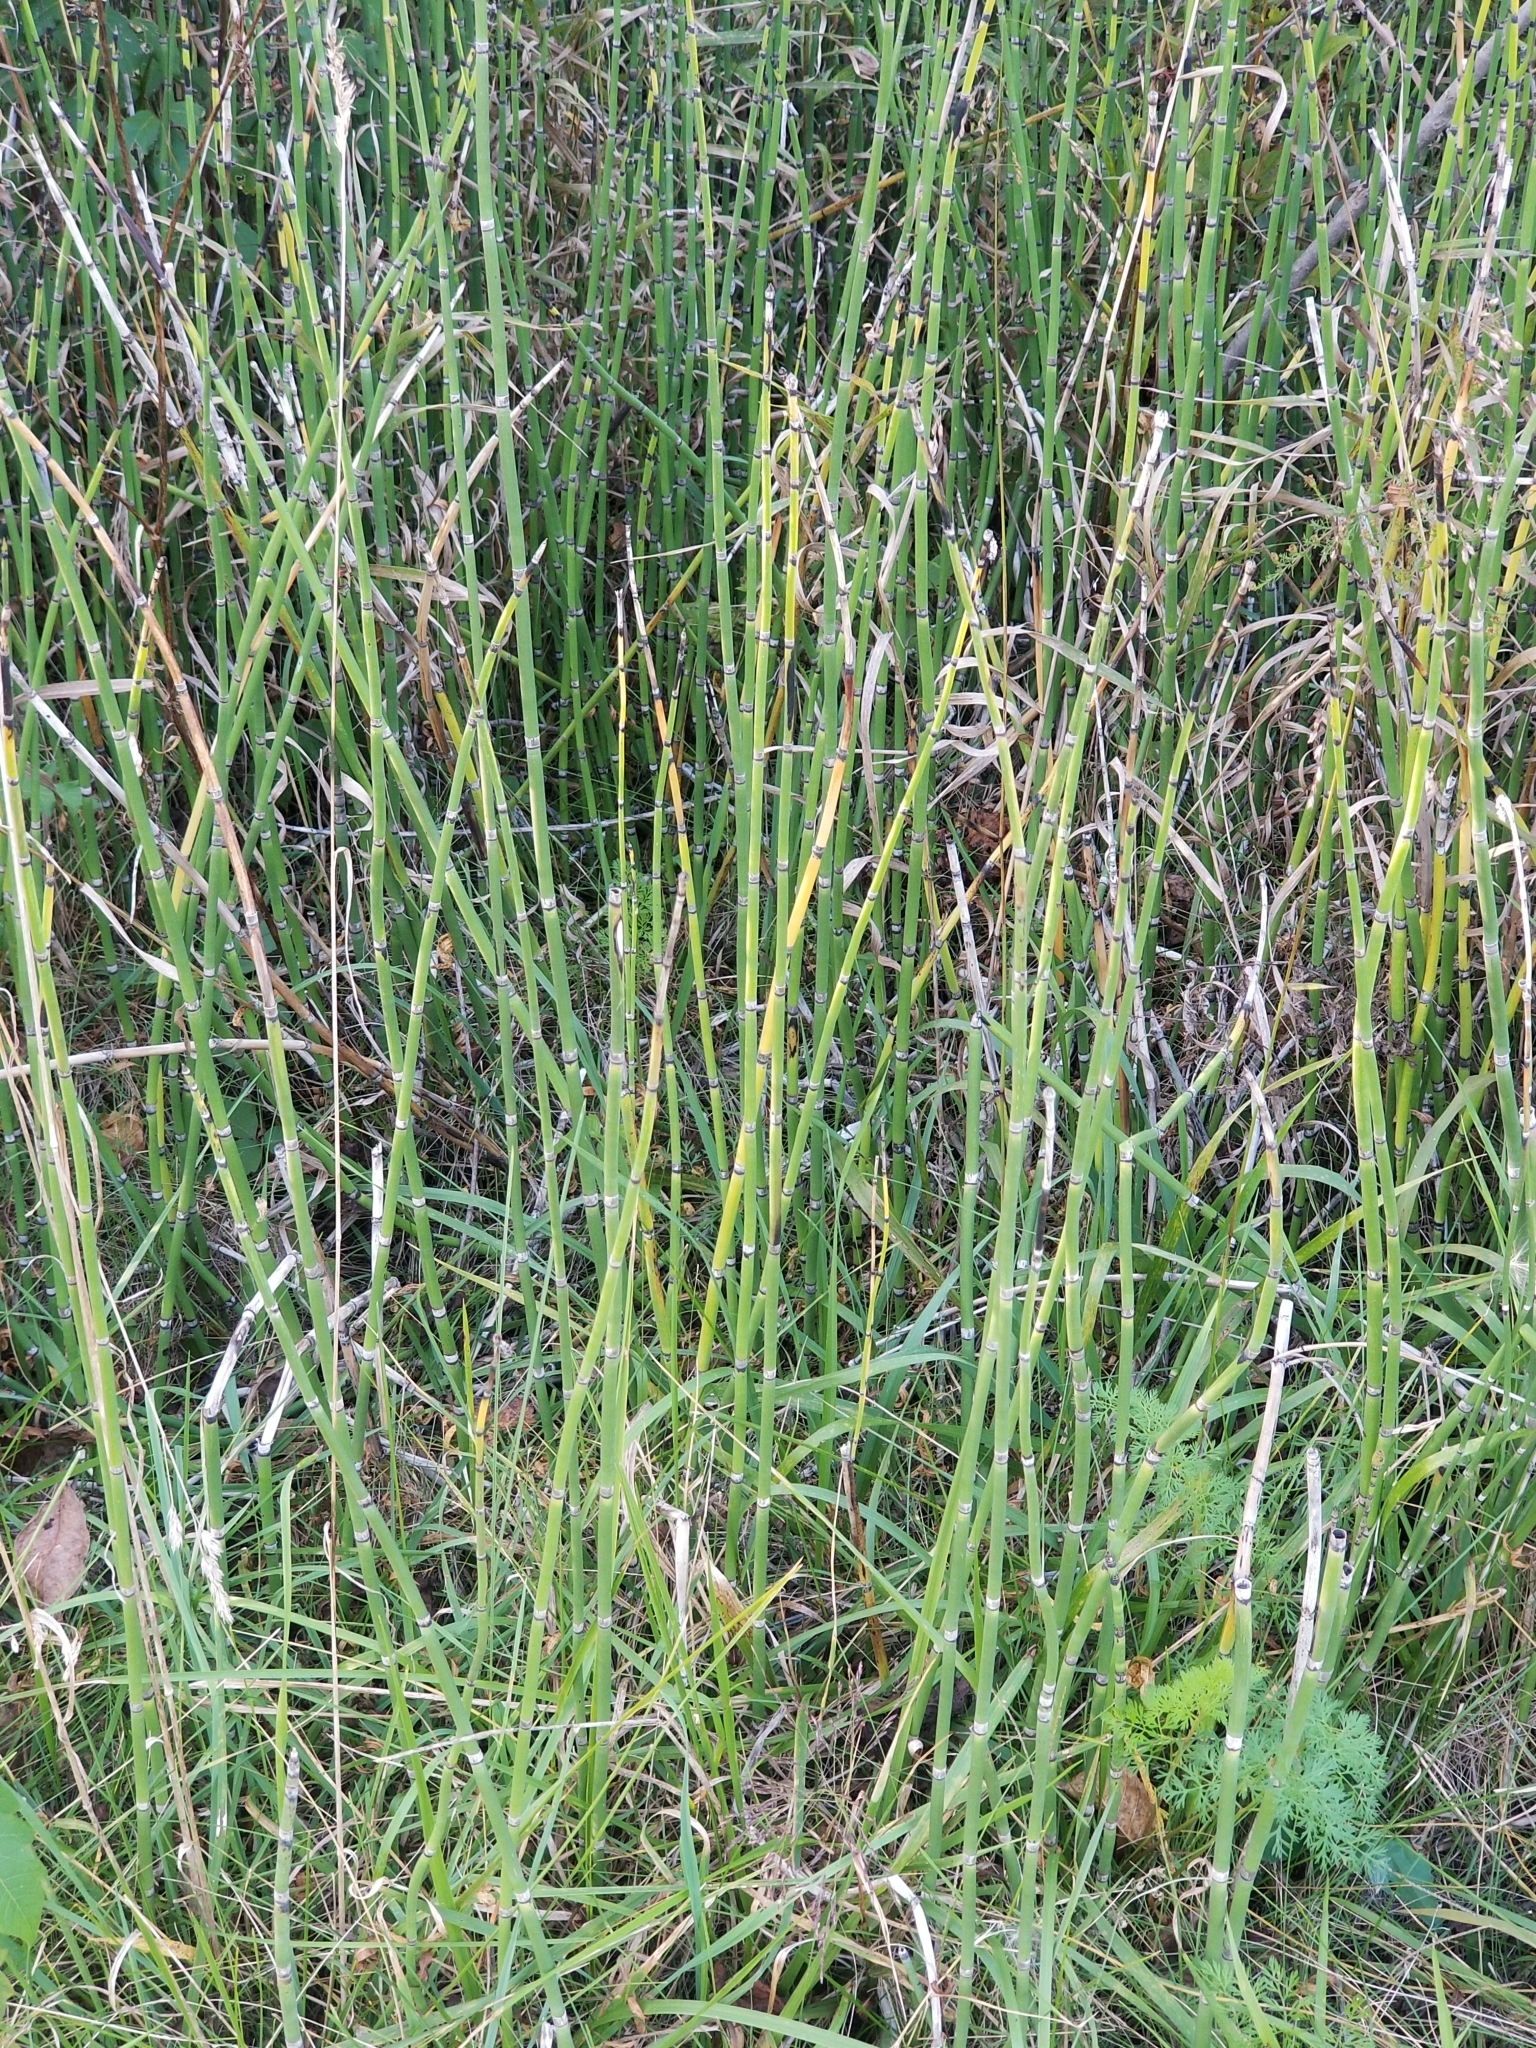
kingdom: Plantae
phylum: Tracheophyta
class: Polypodiopsida
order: Equisetales
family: Equisetaceae
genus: Equisetum
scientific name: Equisetum praealtum
